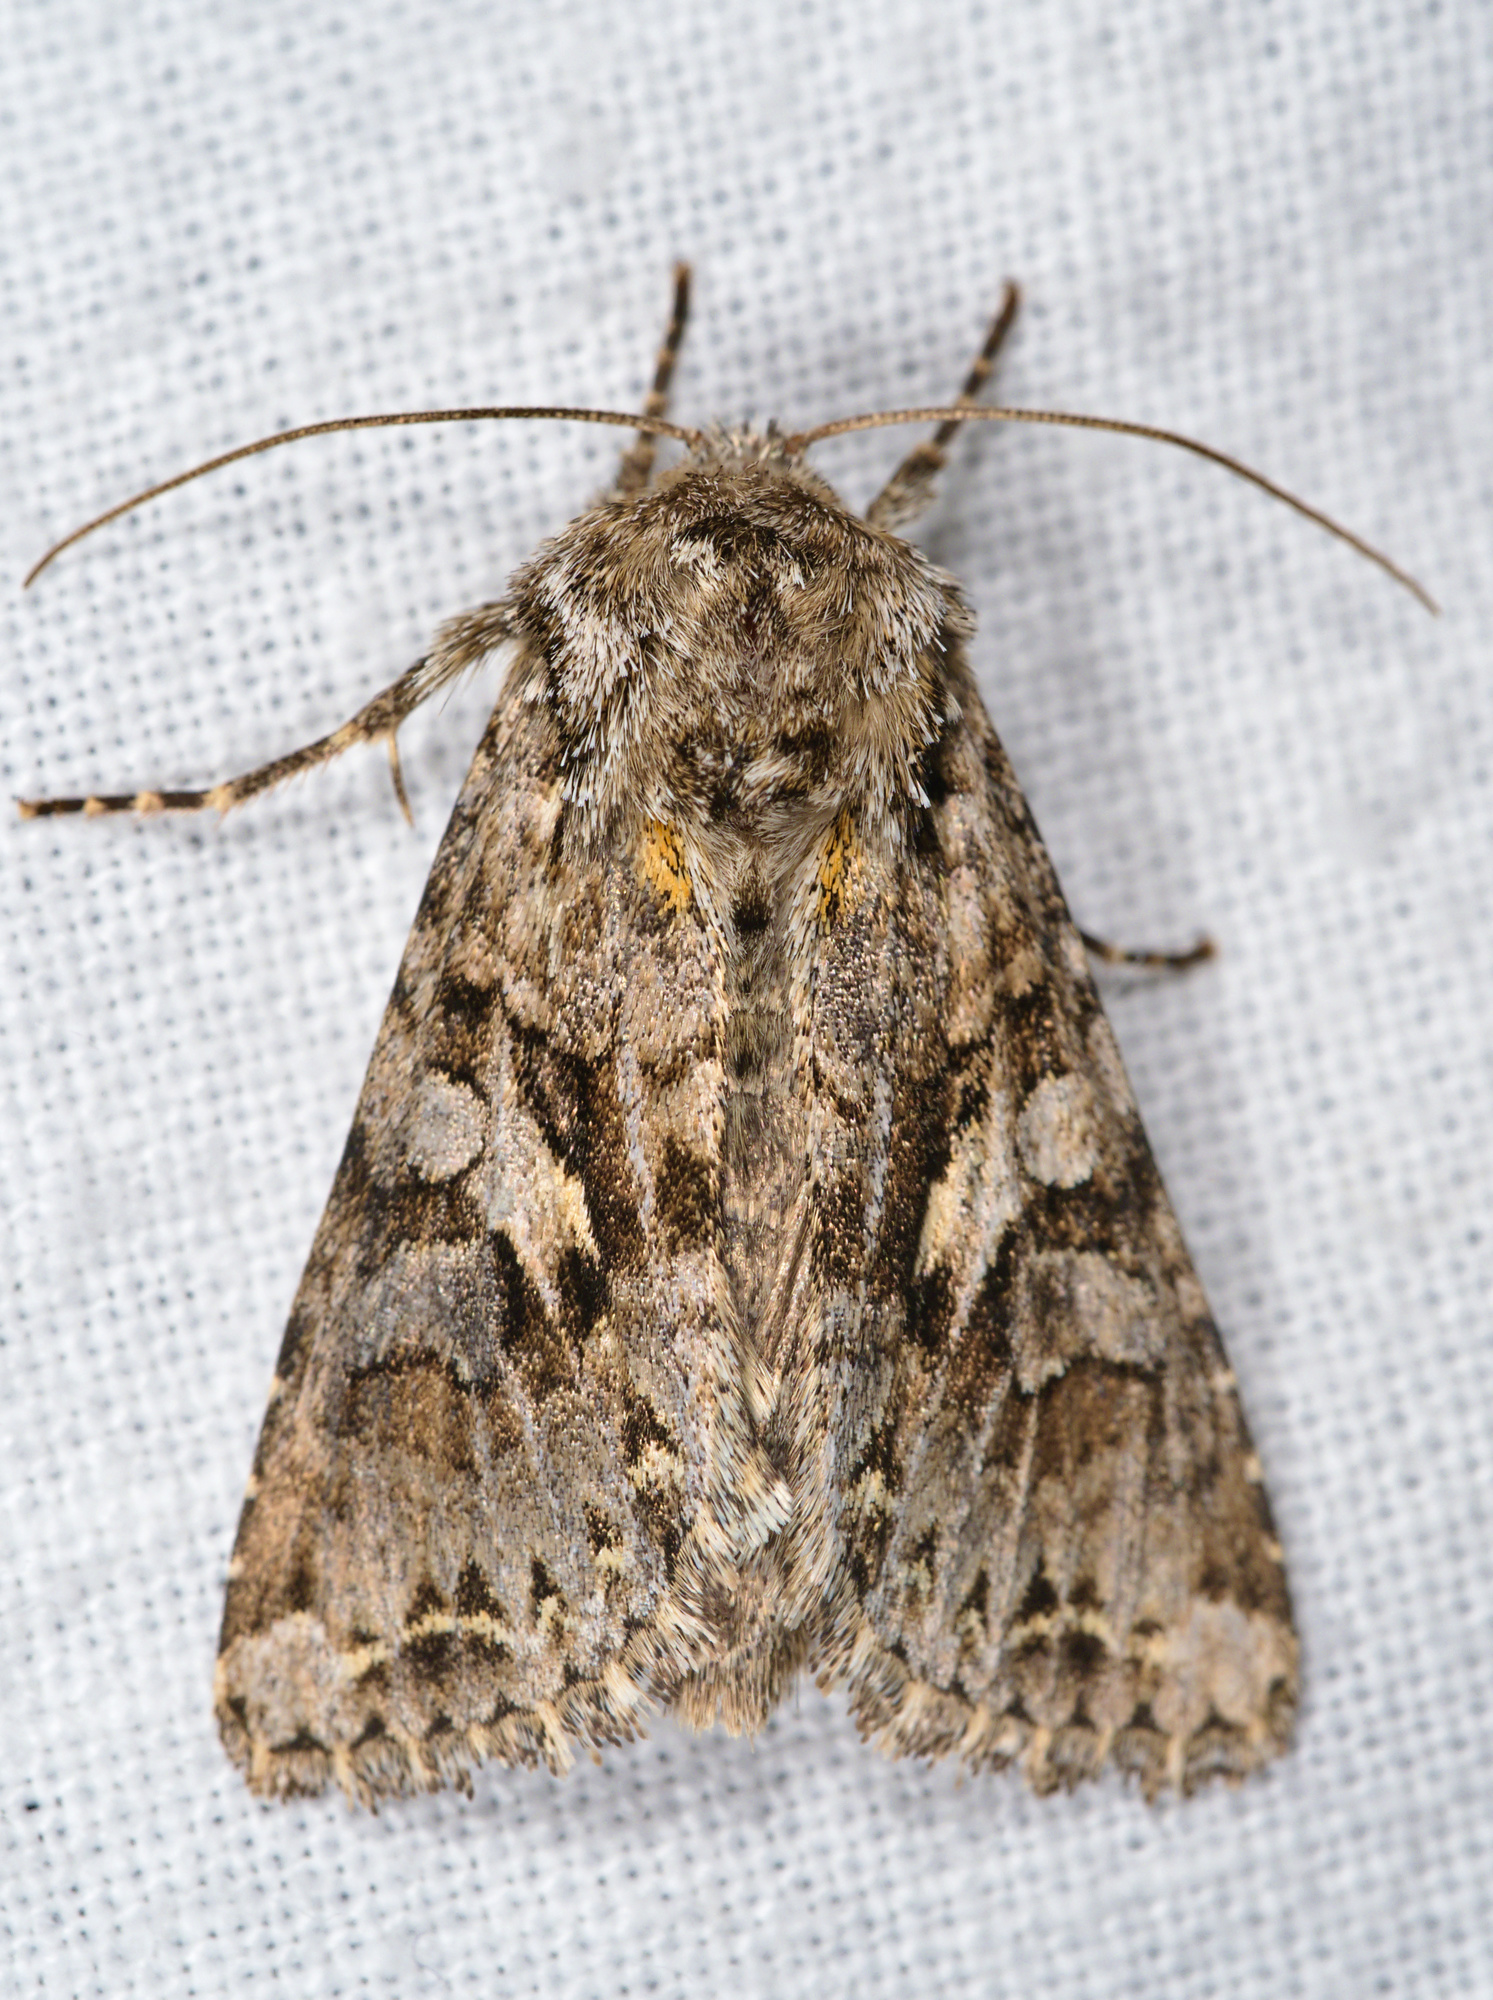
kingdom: Animalia
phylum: Arthropoda
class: Insecta
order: Lepidoptera
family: Noctuidae
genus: Hada
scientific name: Hada plebeja
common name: Shears
